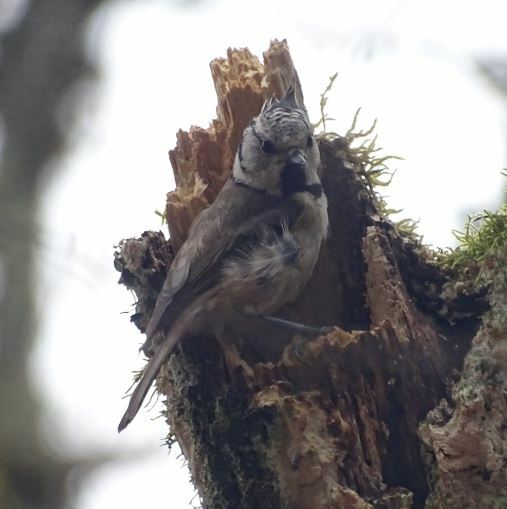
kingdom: Animalia
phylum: Chordata
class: Aves
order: Passeriformes
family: Paridae
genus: Lophophanes
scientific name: Lophophanes cristatus
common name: European crested tit
